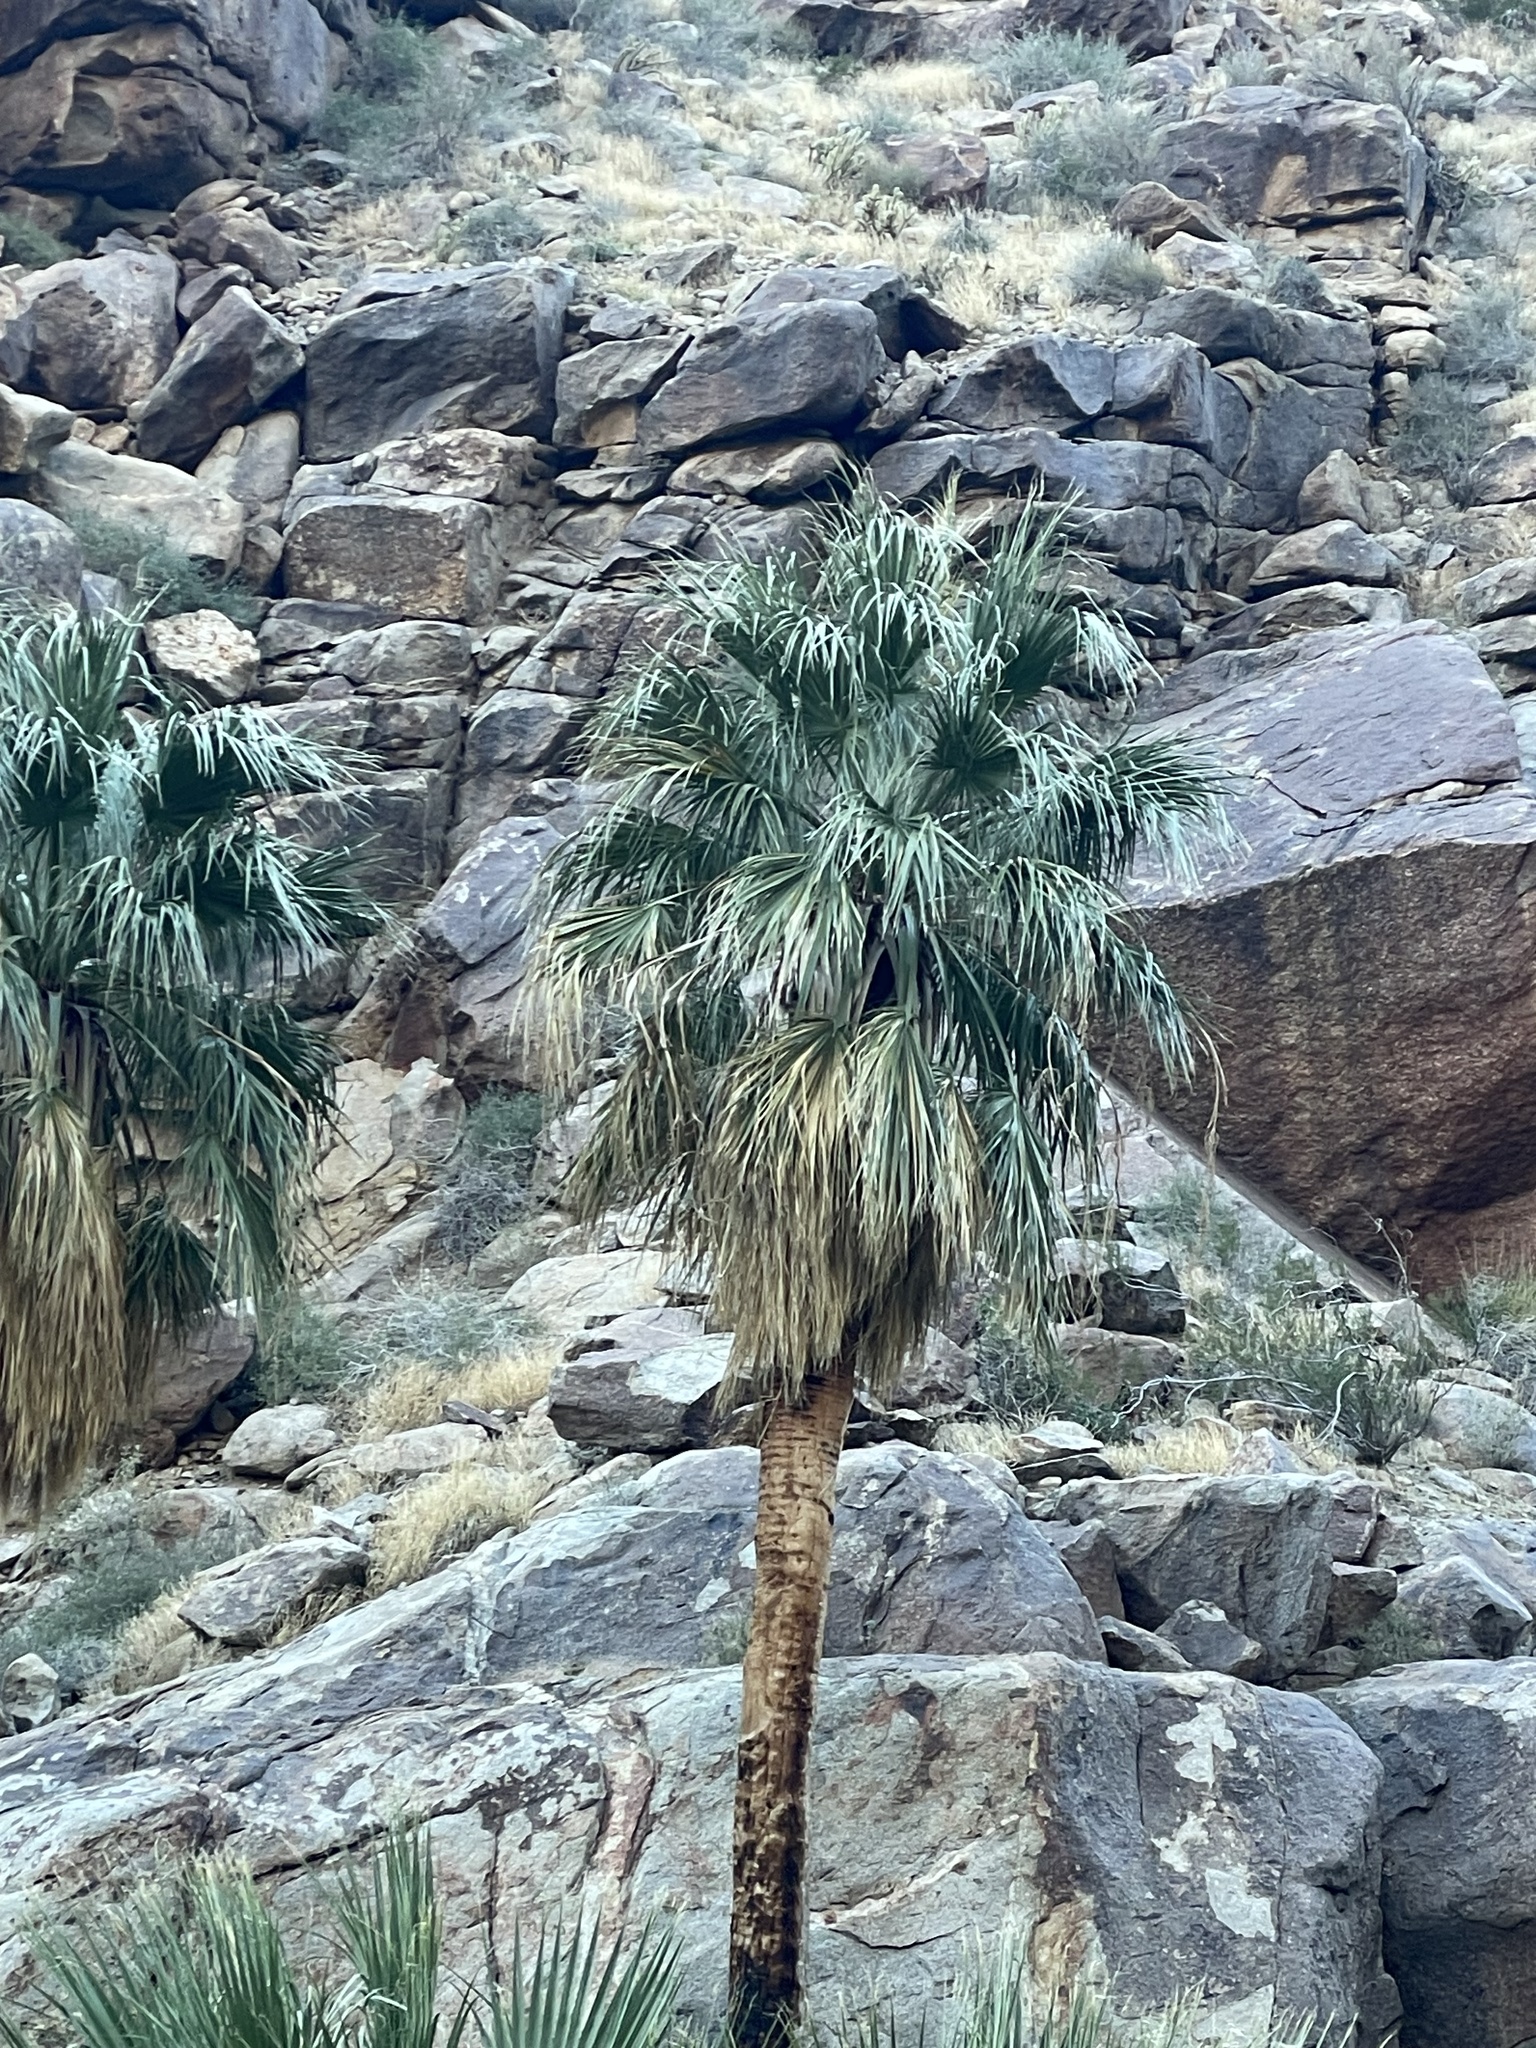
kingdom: Plantae
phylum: Tracheophyta
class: Liliopsida
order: Arecales
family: Arecaceae
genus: Washingtonia
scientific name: Washingtonia filifera
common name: California fan palm
